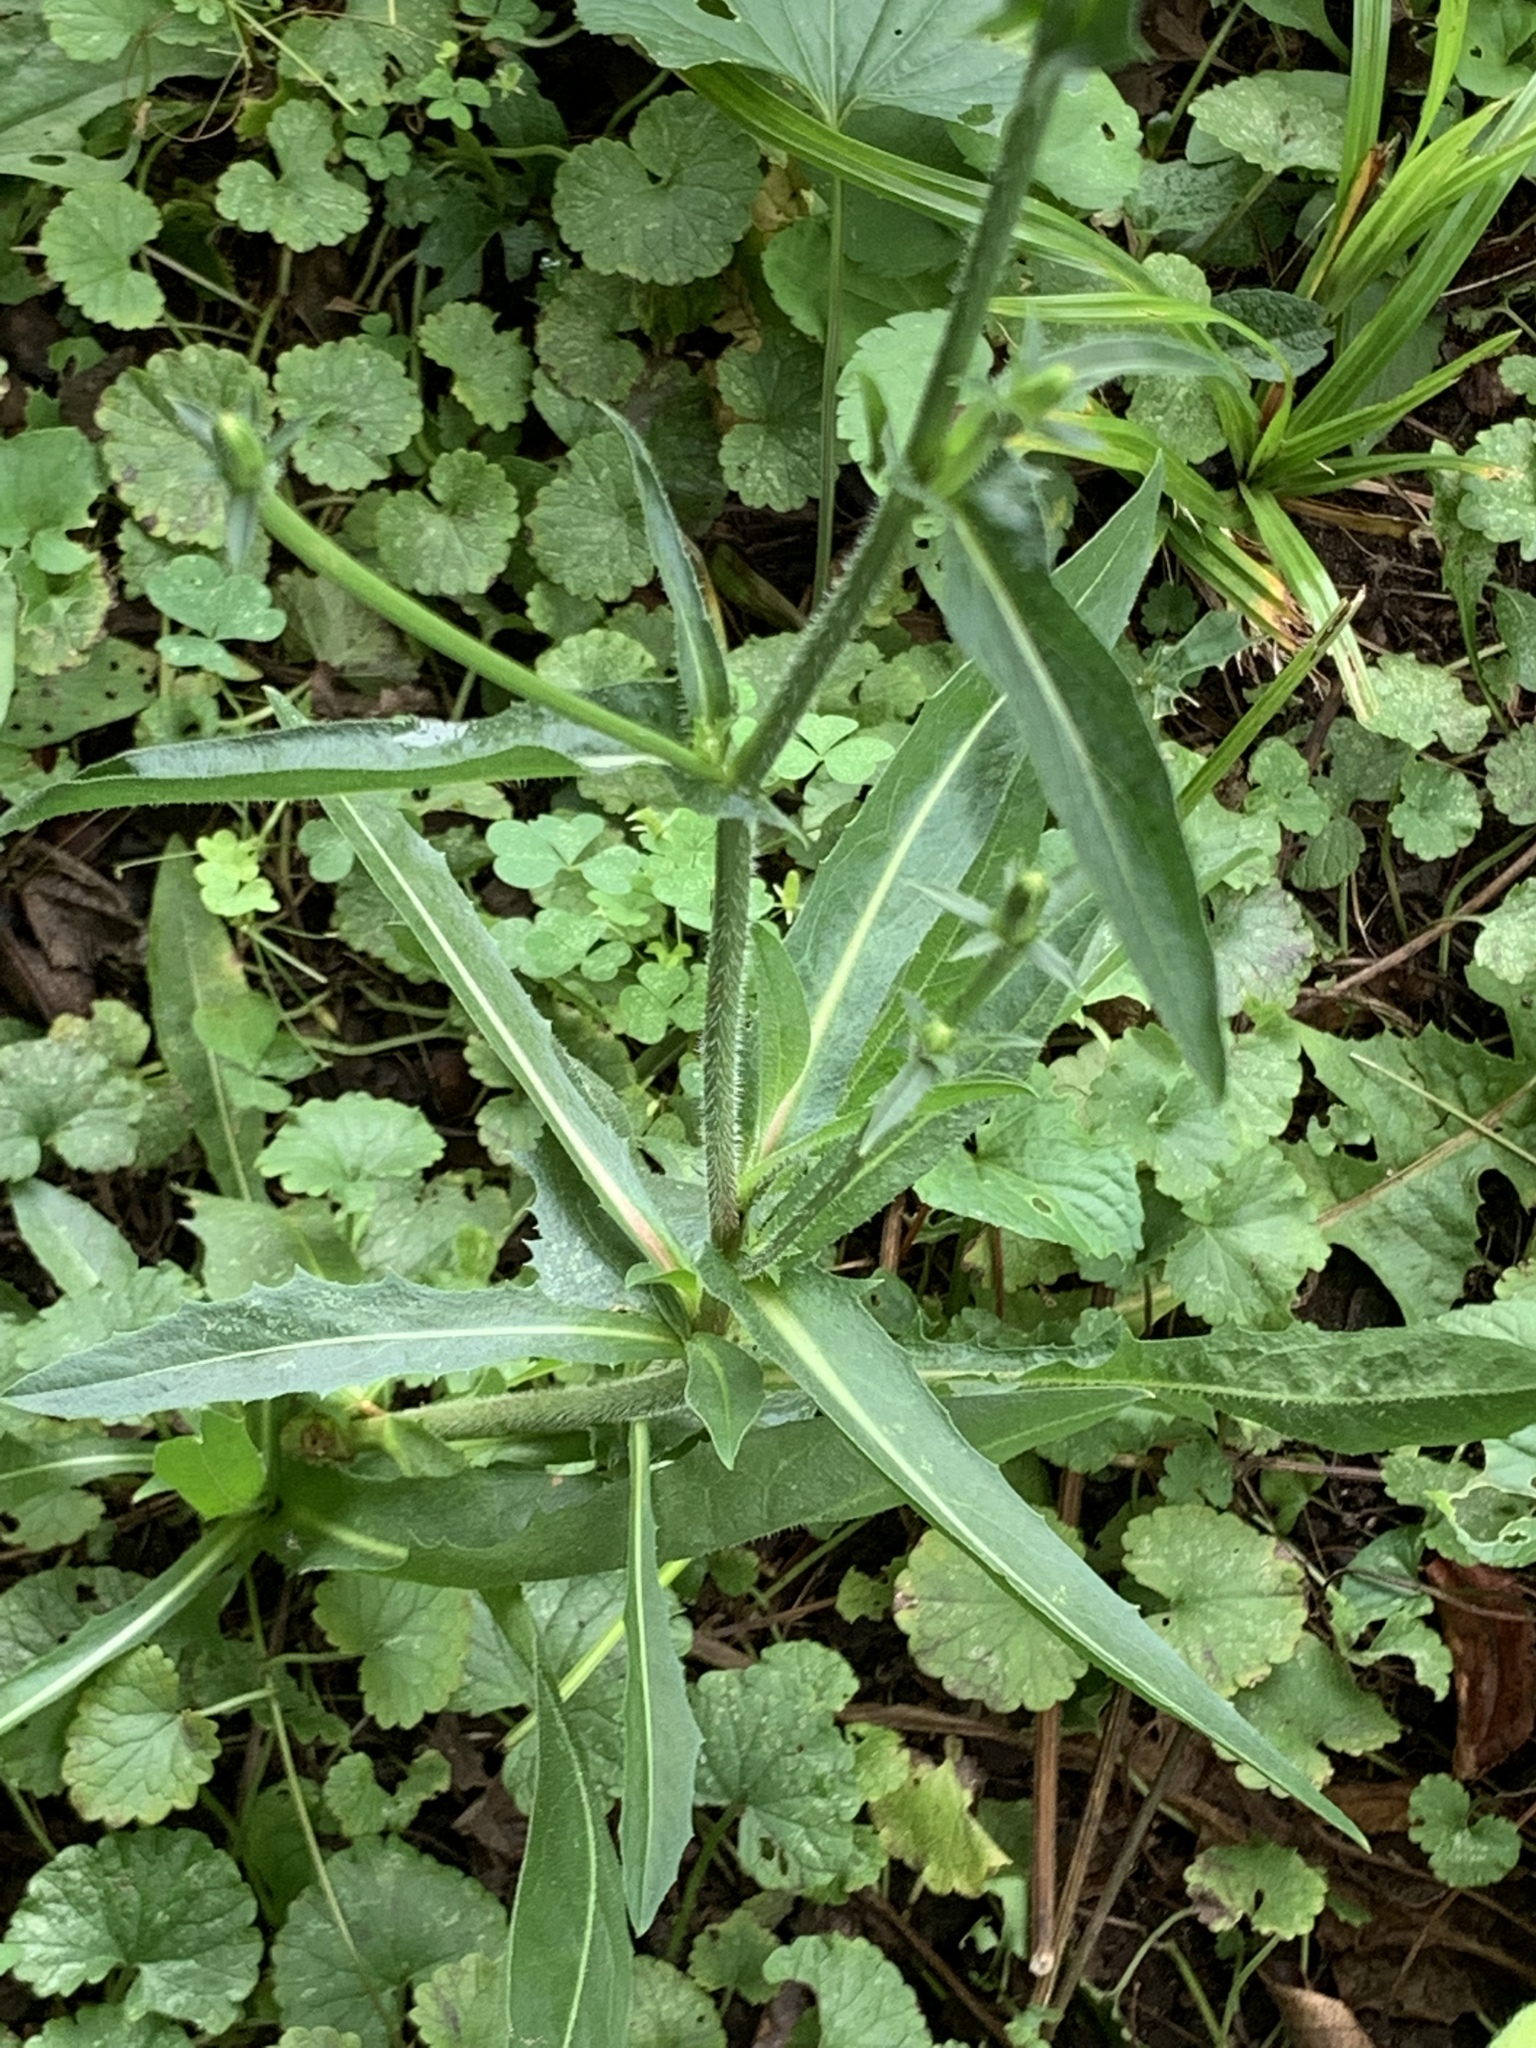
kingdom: Plantae
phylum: Tracheophyta
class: Magnoliopsida
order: Asterales
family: Asteraceae
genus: Cichorium
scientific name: Cichorium intybus
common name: Chicory
